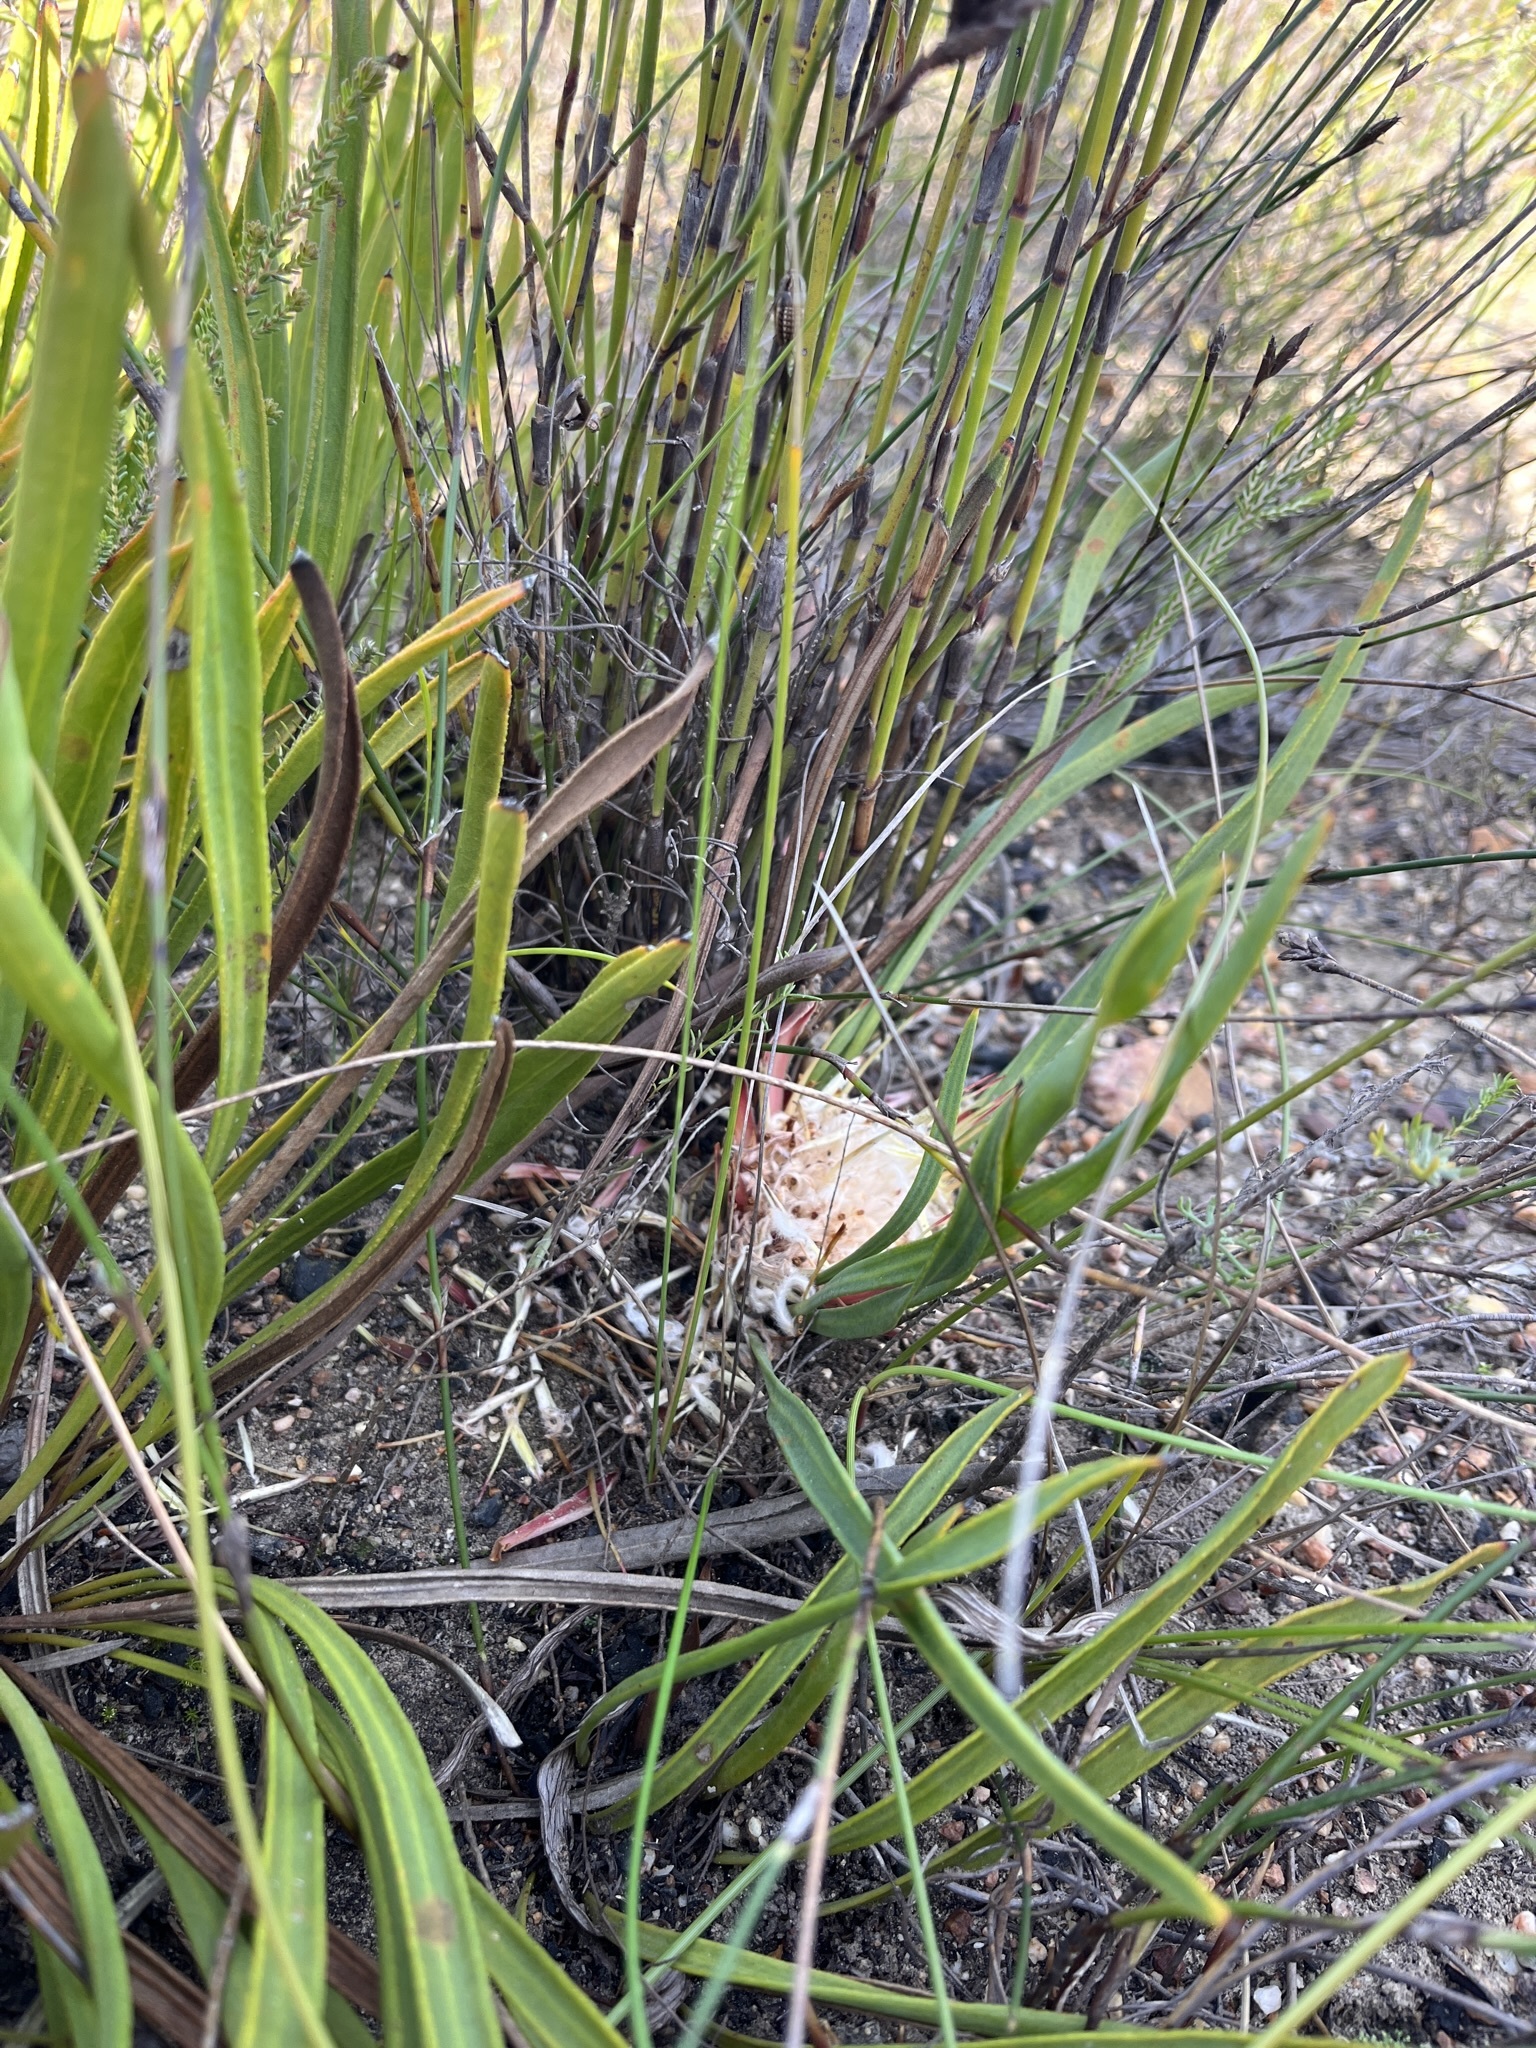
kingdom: Plantae
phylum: Tracheophyta
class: Magnoliopsida
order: Proteales
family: Proteaceae
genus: Protea
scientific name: Protea scabra
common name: Sandpaper-leaf sugarbush
